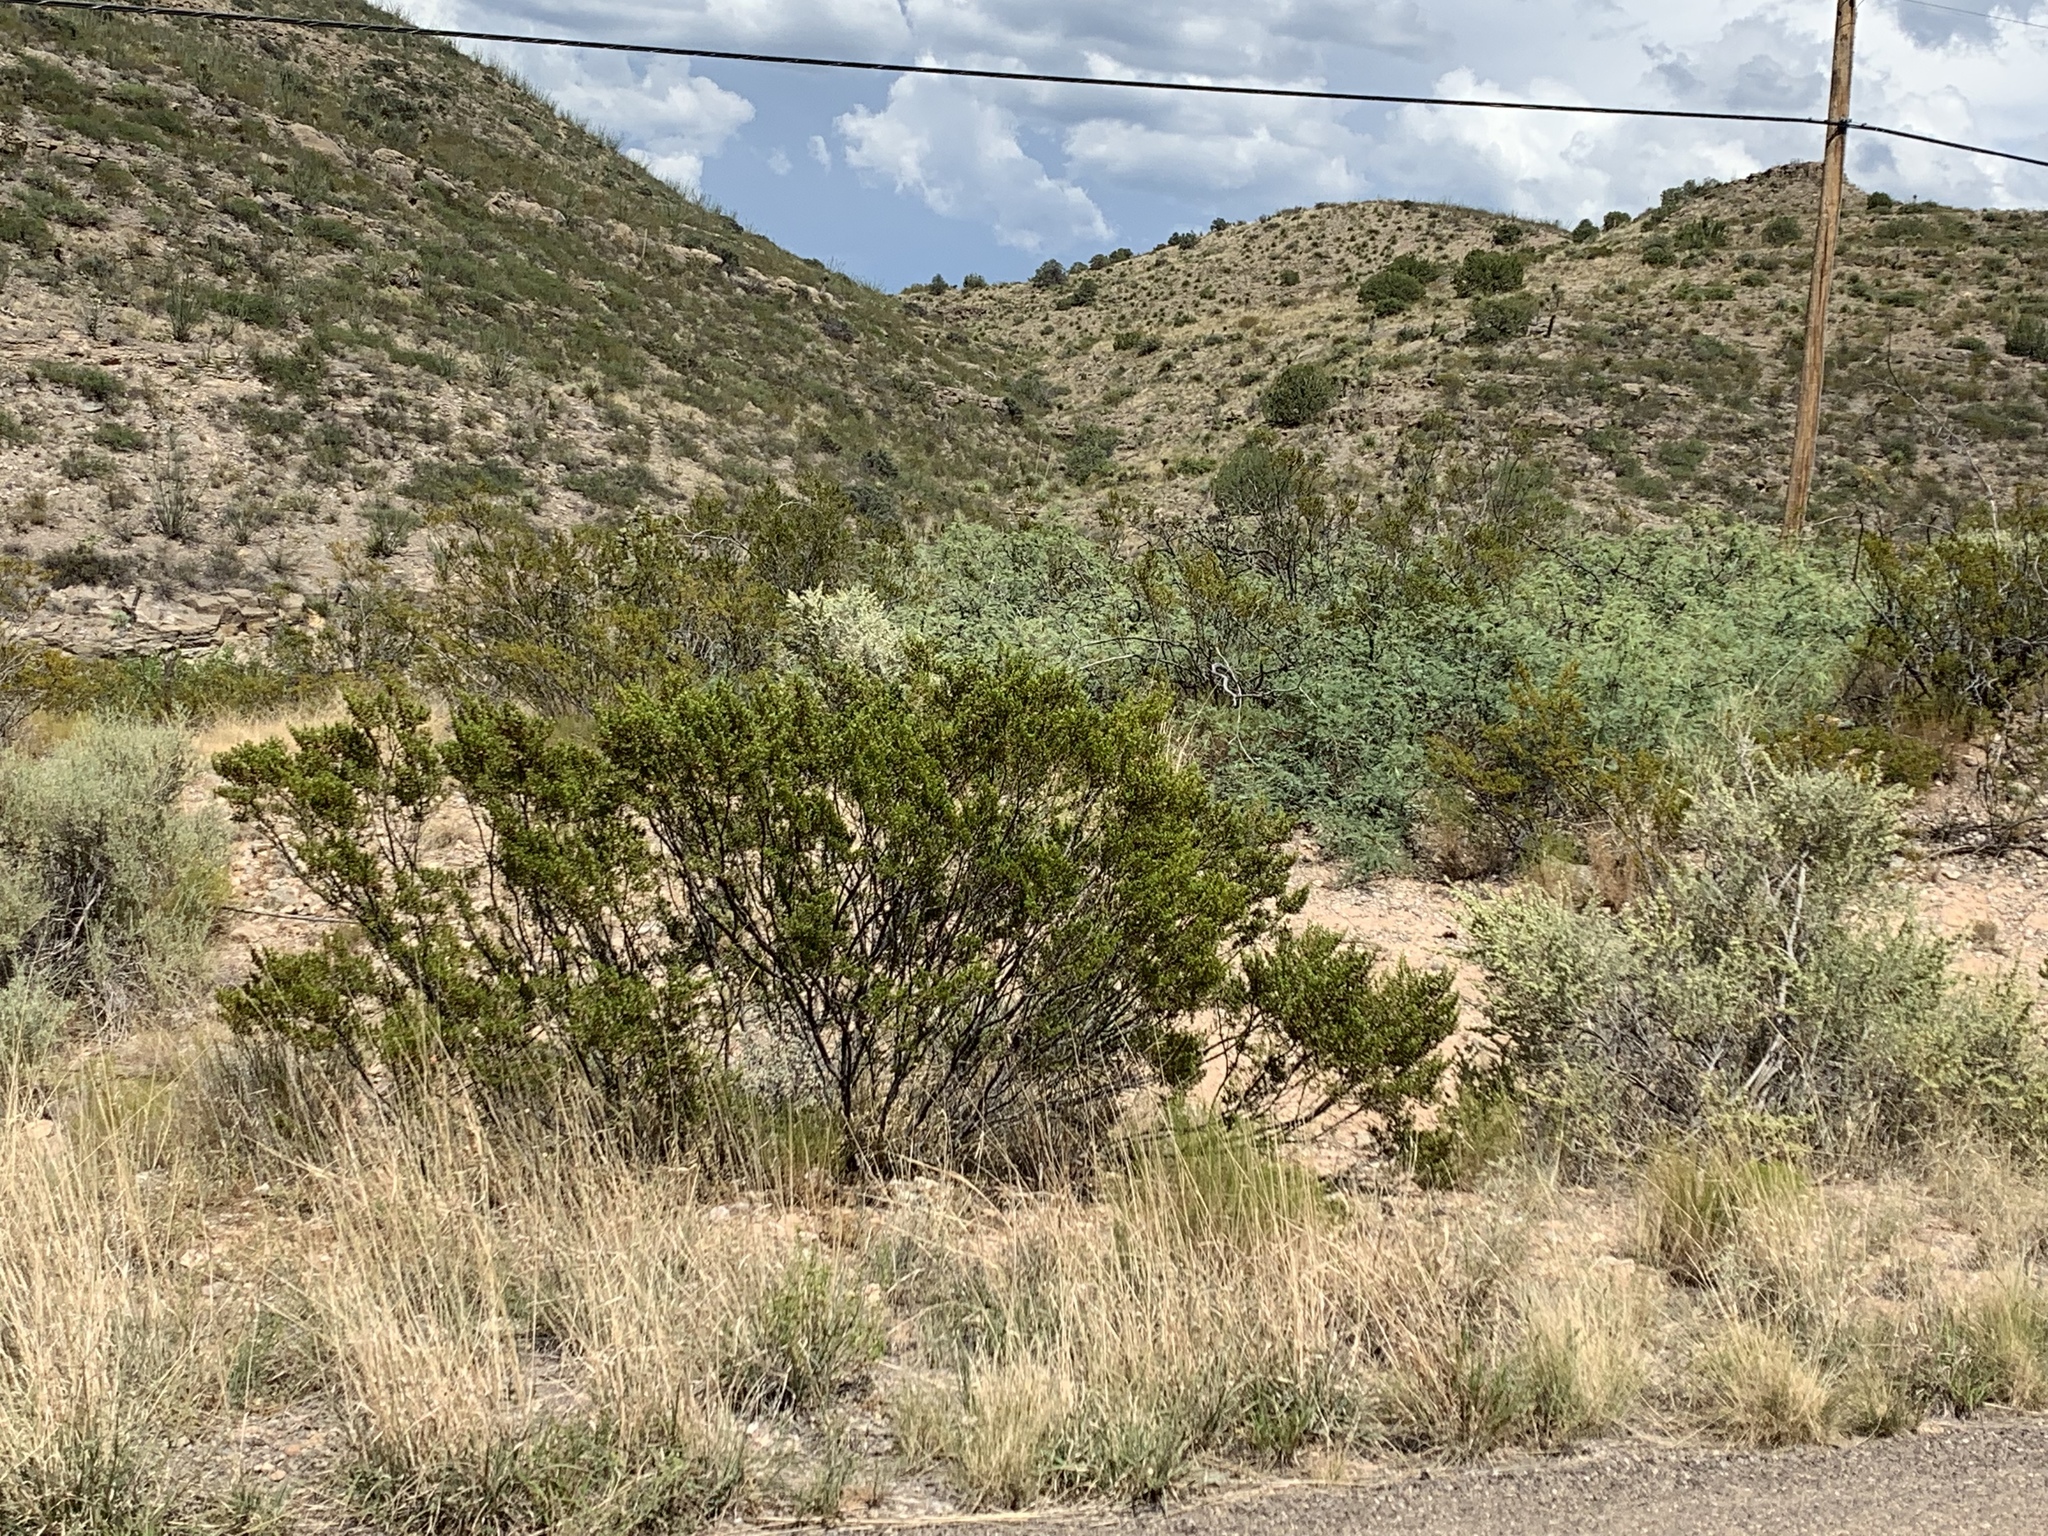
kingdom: Plantae
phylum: Tracheophyta
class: Magnoliopsida
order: Zygophyllales
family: Zygophyllaceae
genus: Larrea
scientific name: Larrea tridentata
